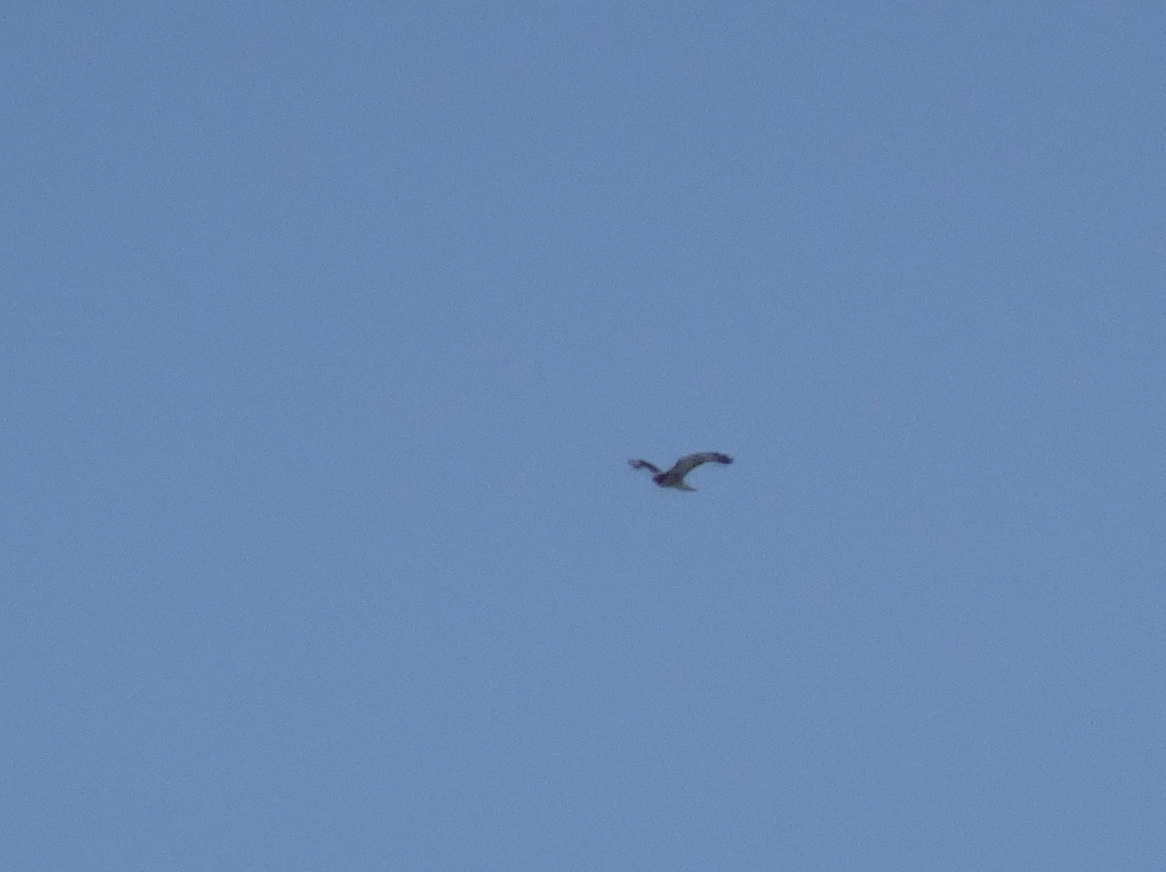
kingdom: Animalia
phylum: Chordata
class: Aves
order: Accipitriformes
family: Accipitridae
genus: Circus
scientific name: Circus cyaneus
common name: Hen harrier
